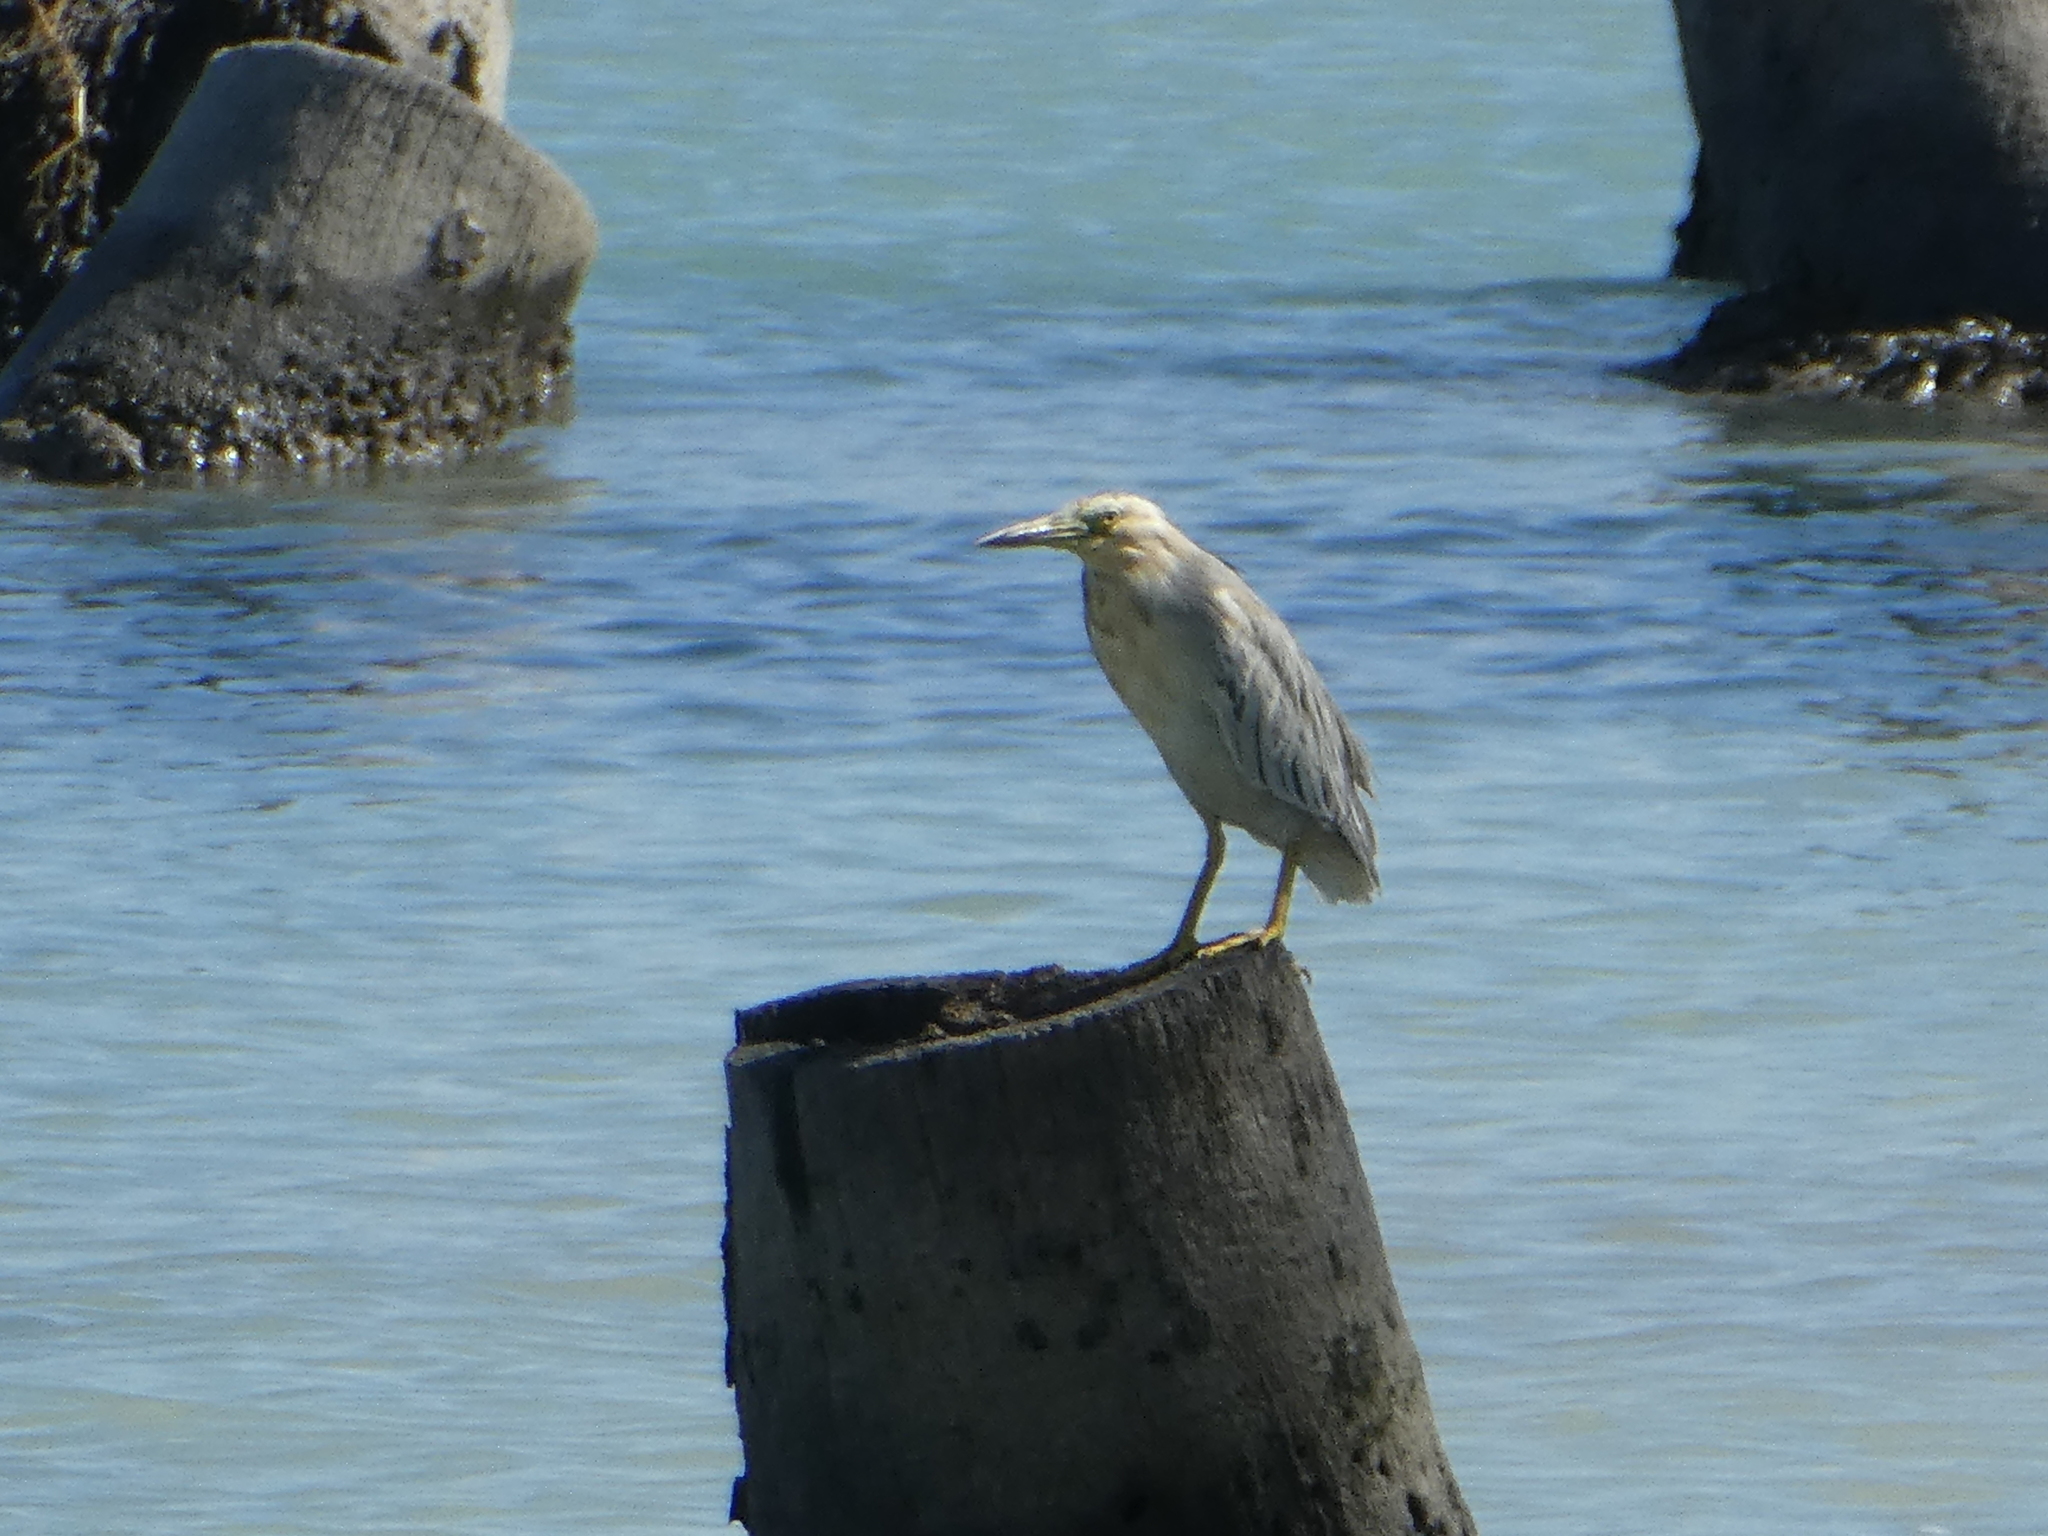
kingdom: Animalia
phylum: Chordata
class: Aves
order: Pelecaniformes
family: Ardeidae
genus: Butorides
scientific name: Butorides striata
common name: Striated heron
